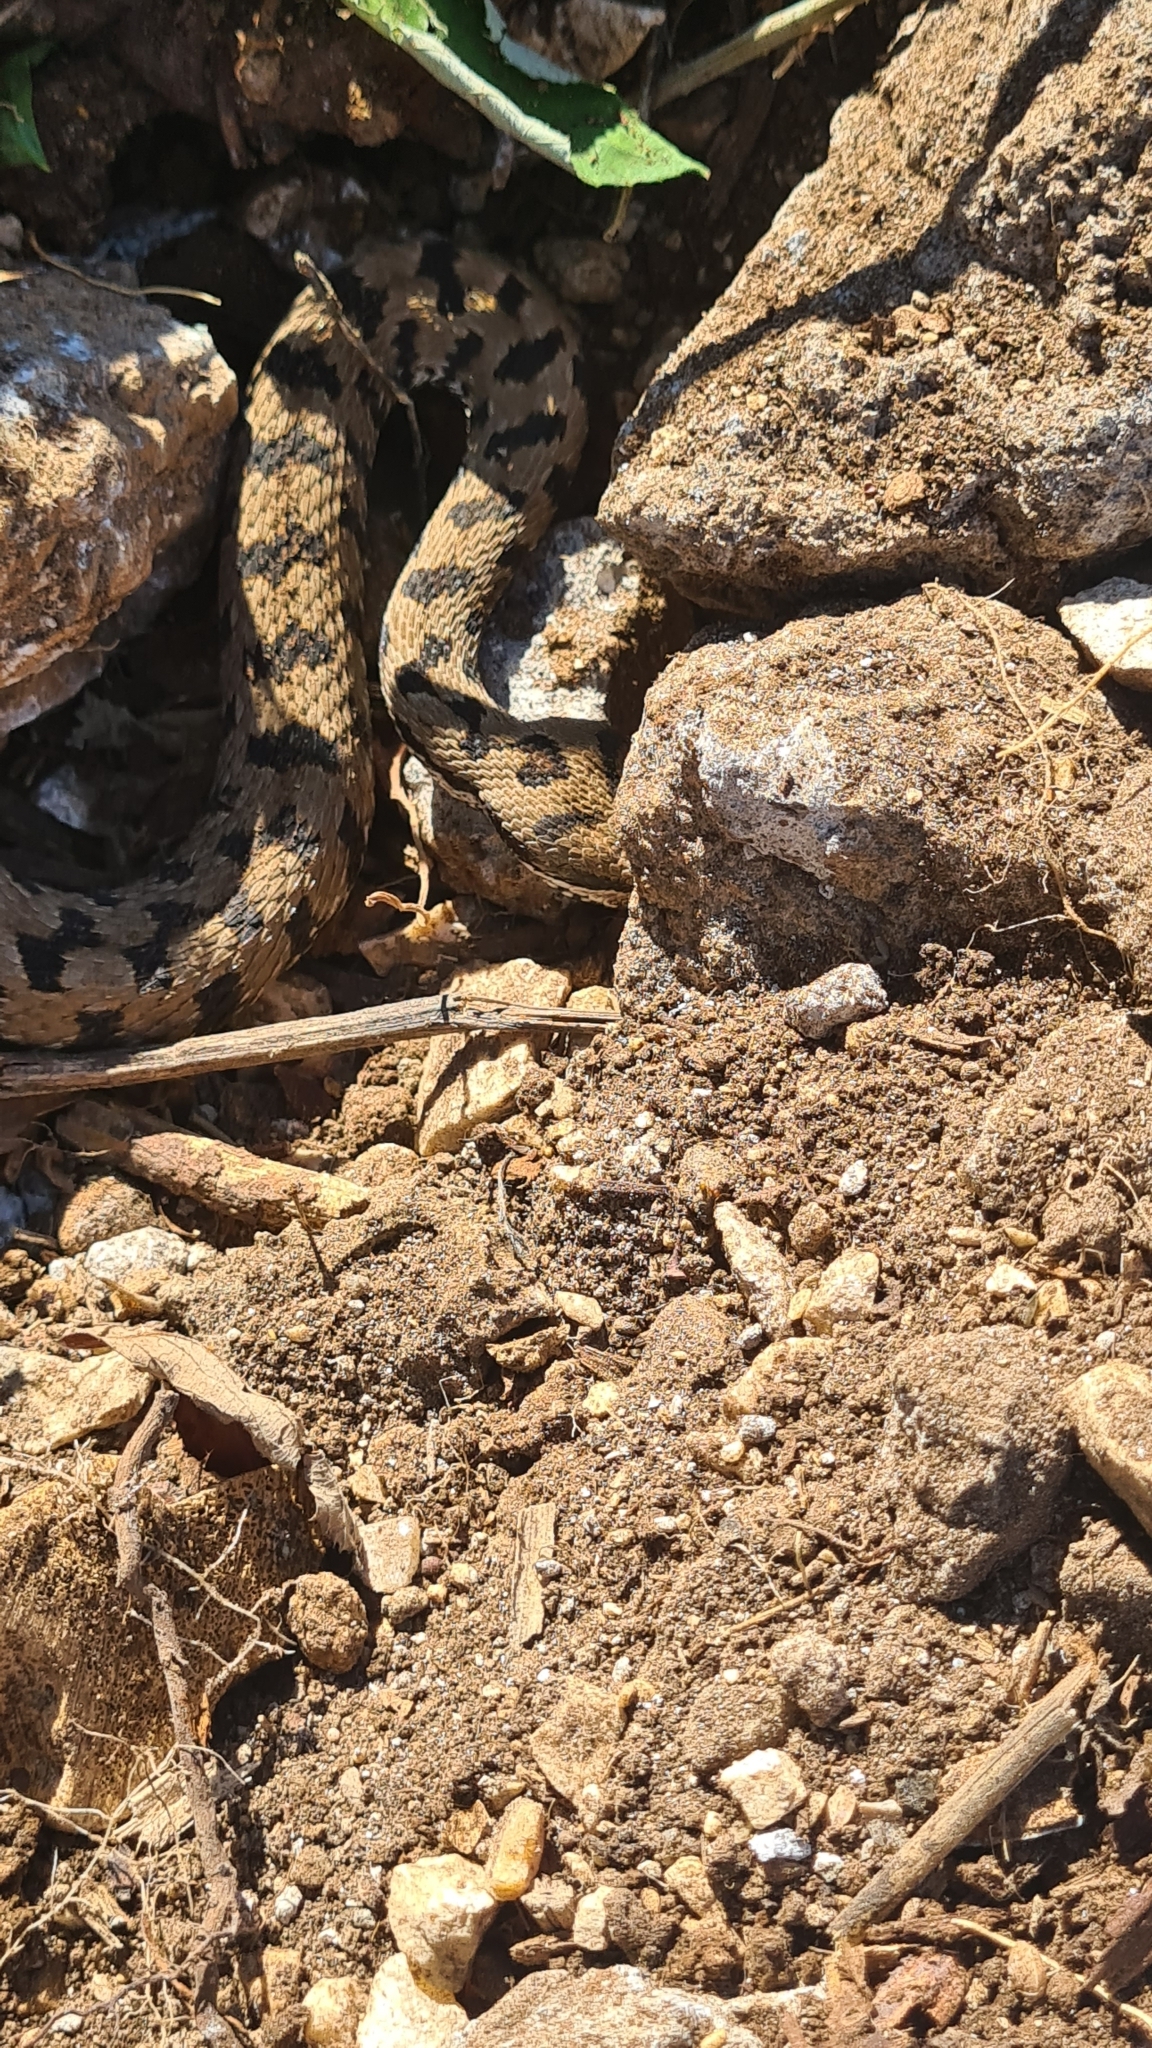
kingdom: Animalia
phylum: Chordata
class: Squamata
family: Viperidae
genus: Vipera
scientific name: Vipera aspis
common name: Asp viper
